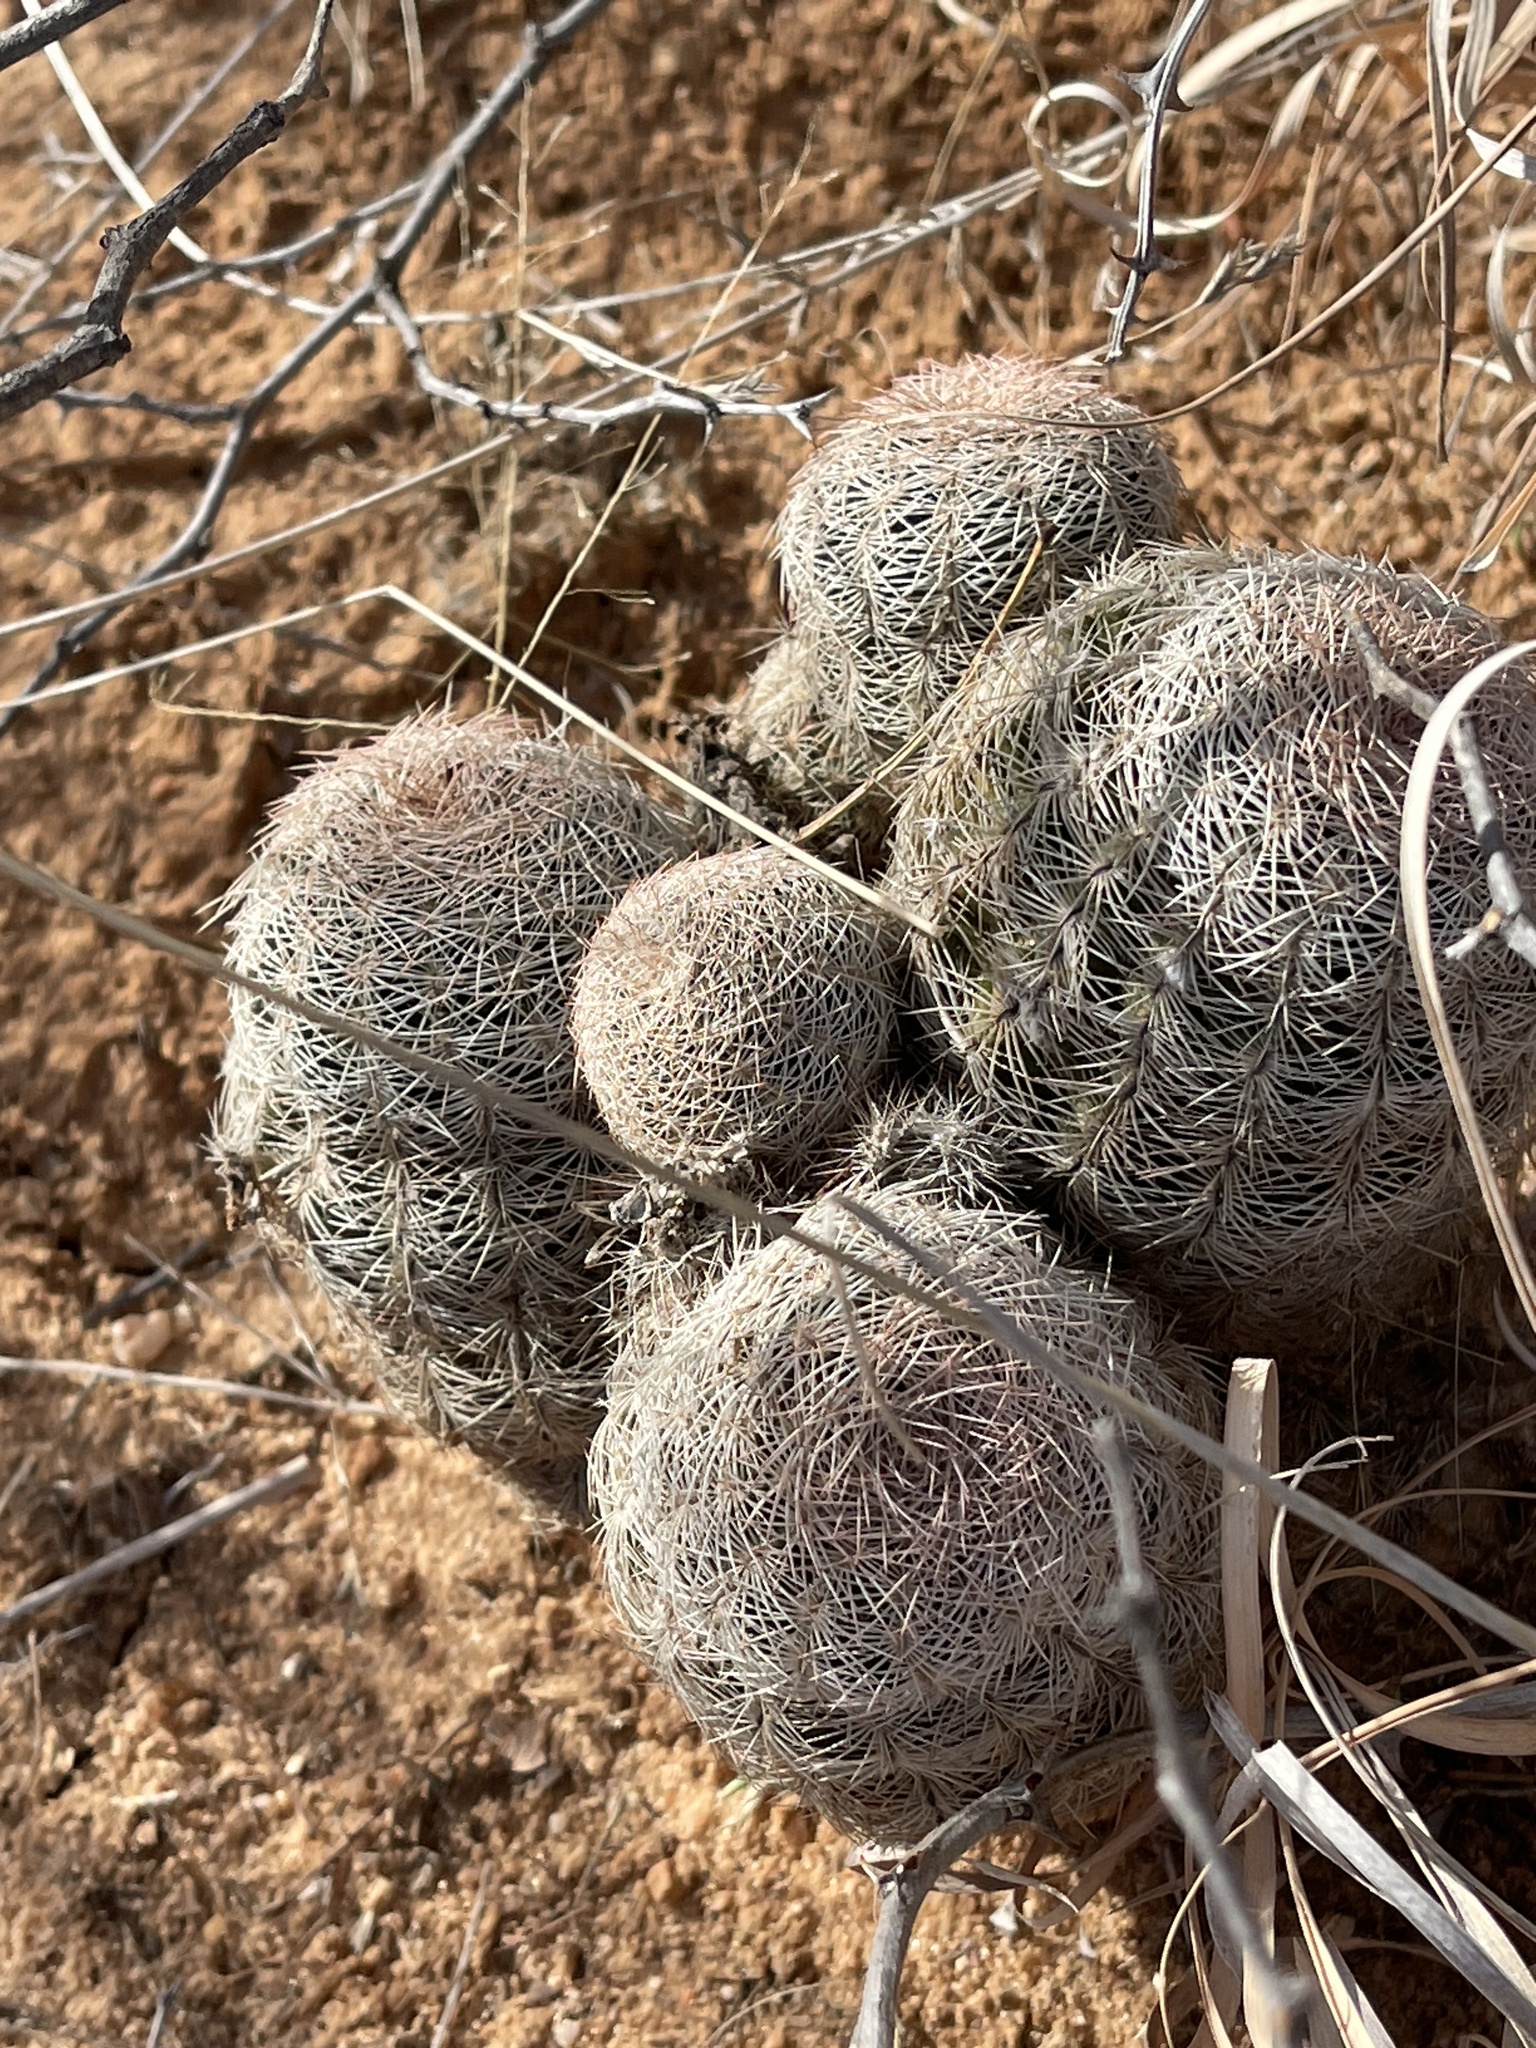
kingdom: Plantae
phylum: Tracheophyta
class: Magnoliopsida
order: Caryophyllales
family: Cactaceae
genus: Echinocereus
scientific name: Echinocereus reichenbachii
